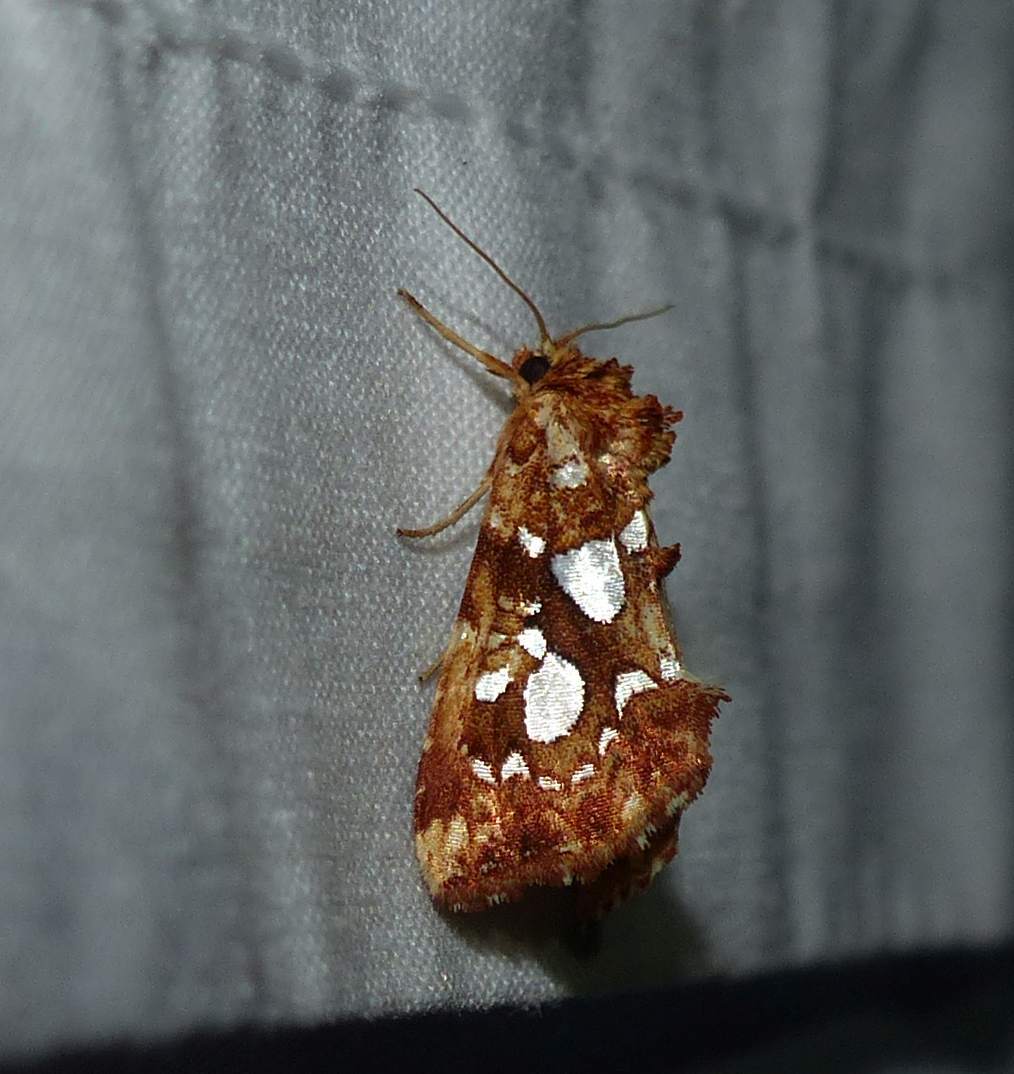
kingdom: Animalia
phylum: Arthropoda
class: Insecta
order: Lepidoptera
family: Noctuidae
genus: Callopistria
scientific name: Callopistria cordata
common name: Silver-spotted fern moth
